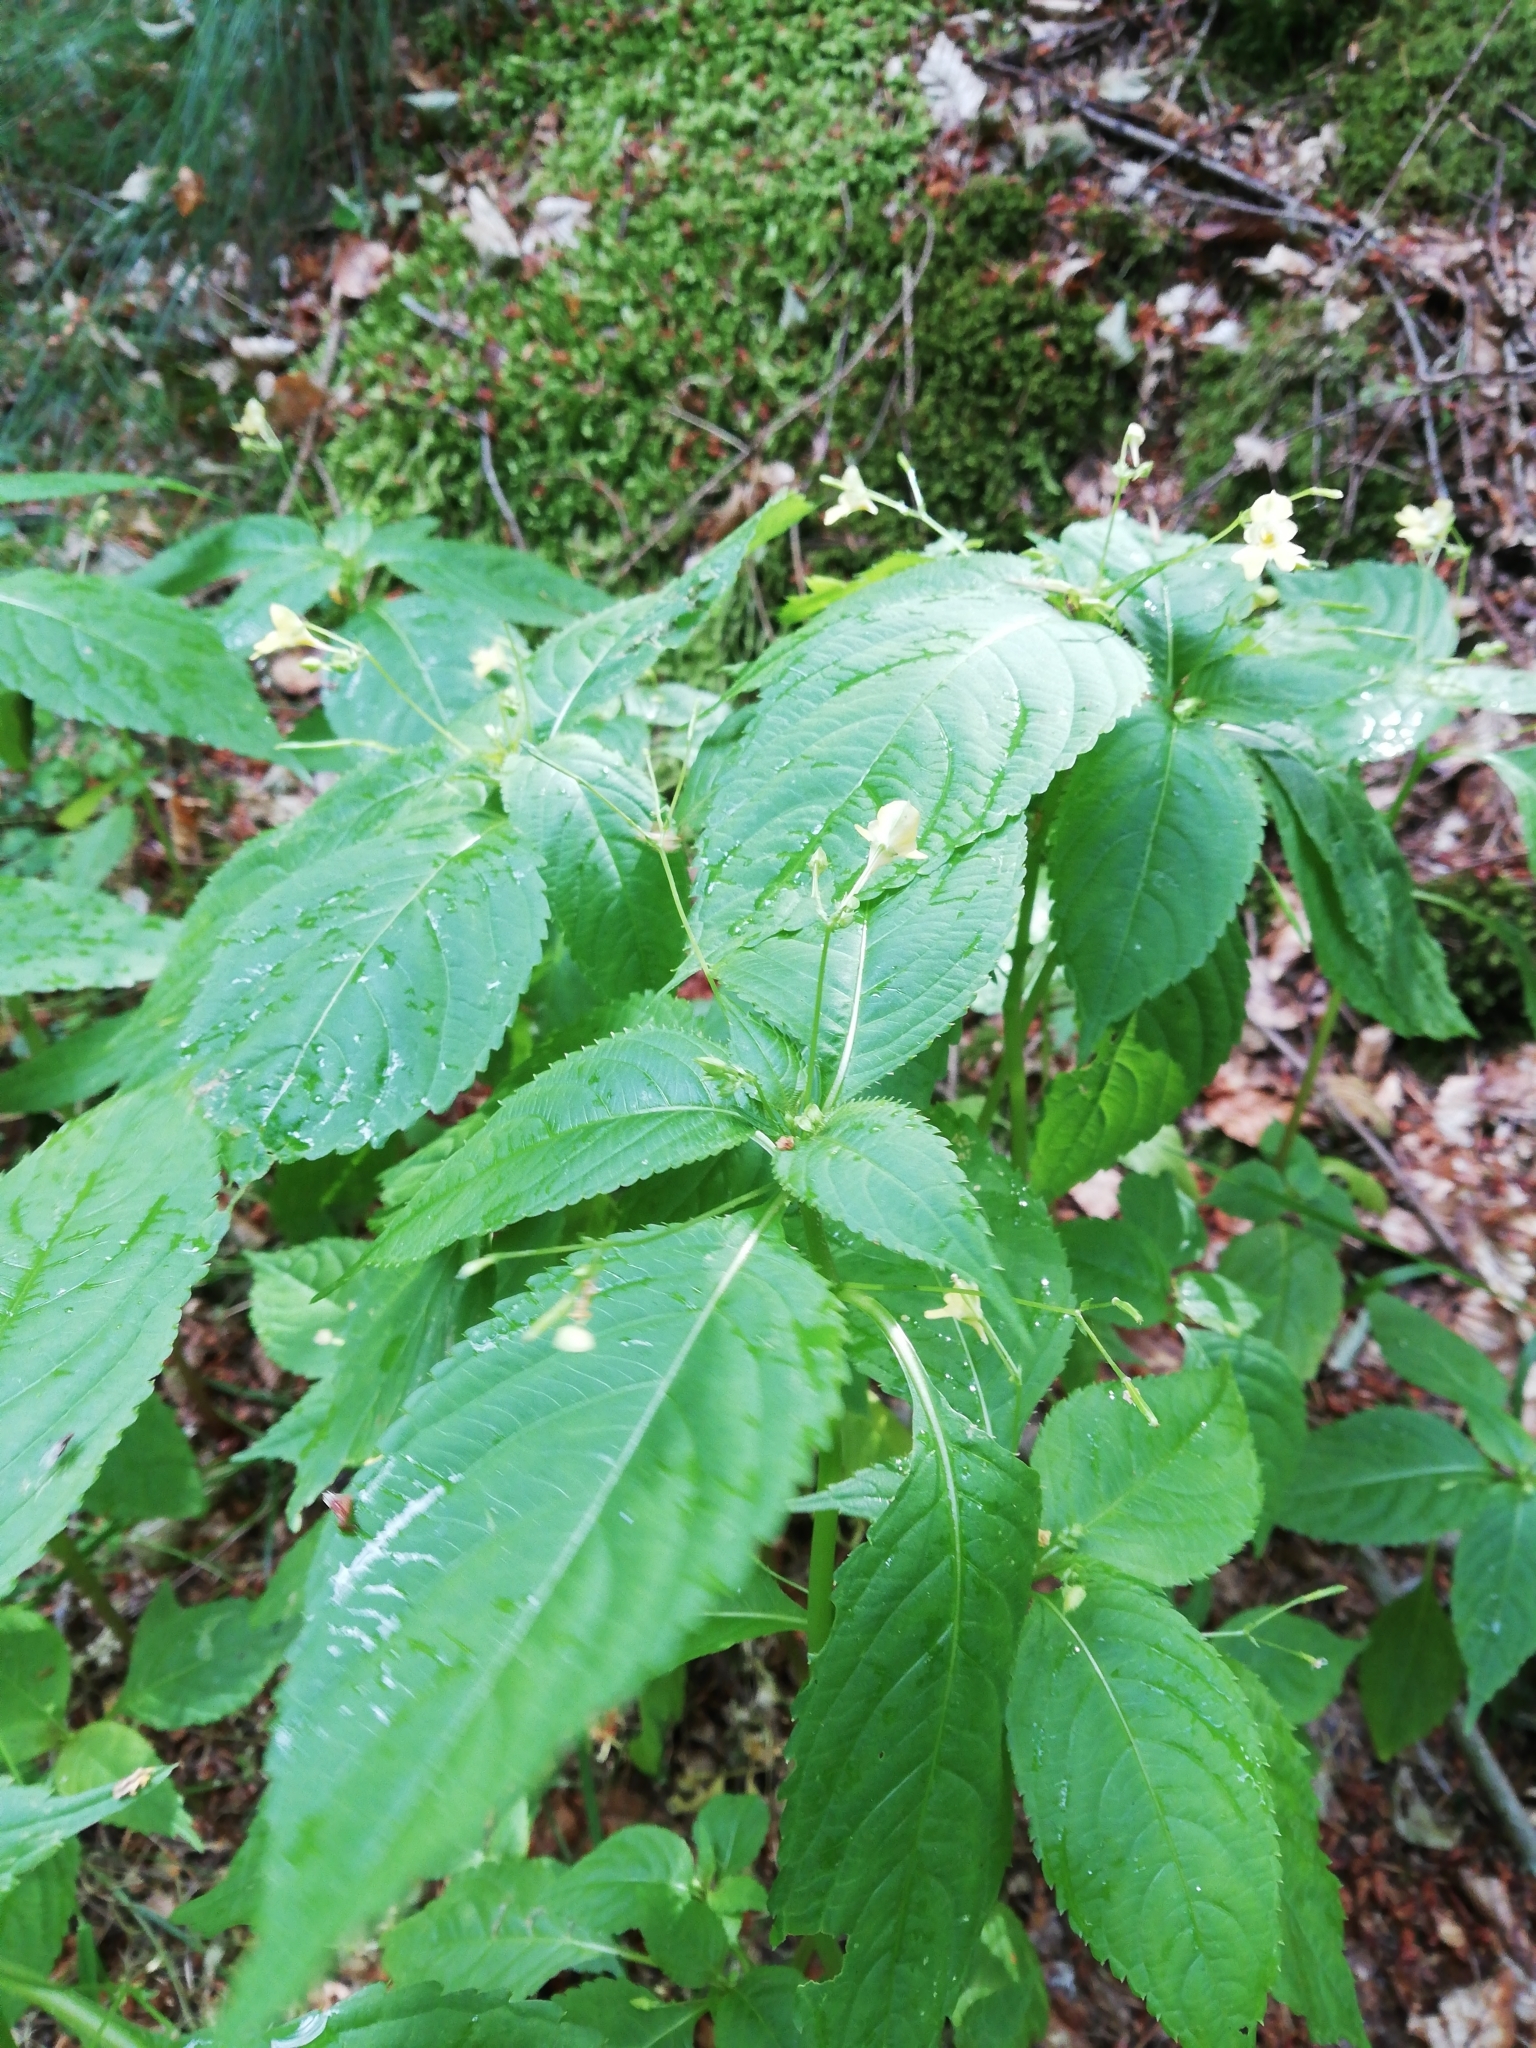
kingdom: Plantae
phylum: Tracheophyta
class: Magnoliopsida
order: Ericales
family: Balsaminaceae
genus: Impatiens
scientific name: Impatiens parviflora
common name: Small balsam
